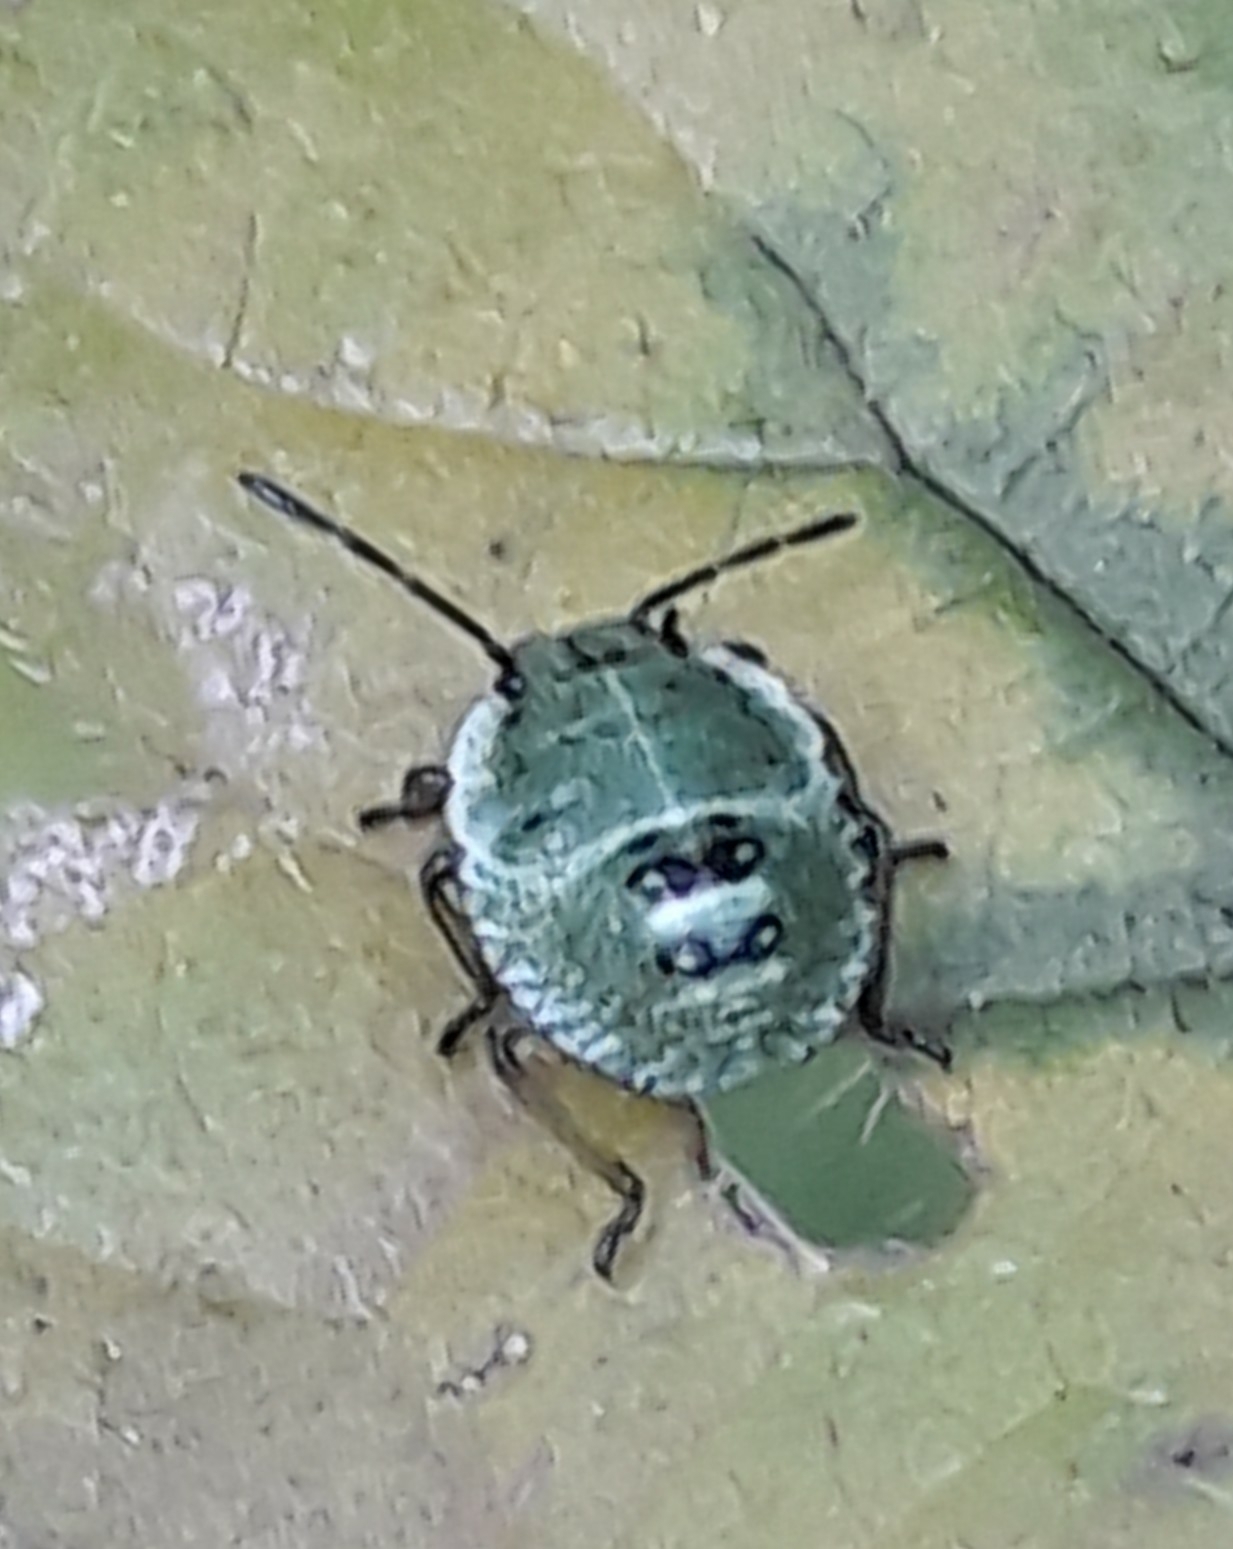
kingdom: Animalia
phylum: Arthropoda
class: Insecta
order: Hemiptera
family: Pentatomidae
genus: Palomena
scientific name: Palomena prasina
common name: Green shieldbug
